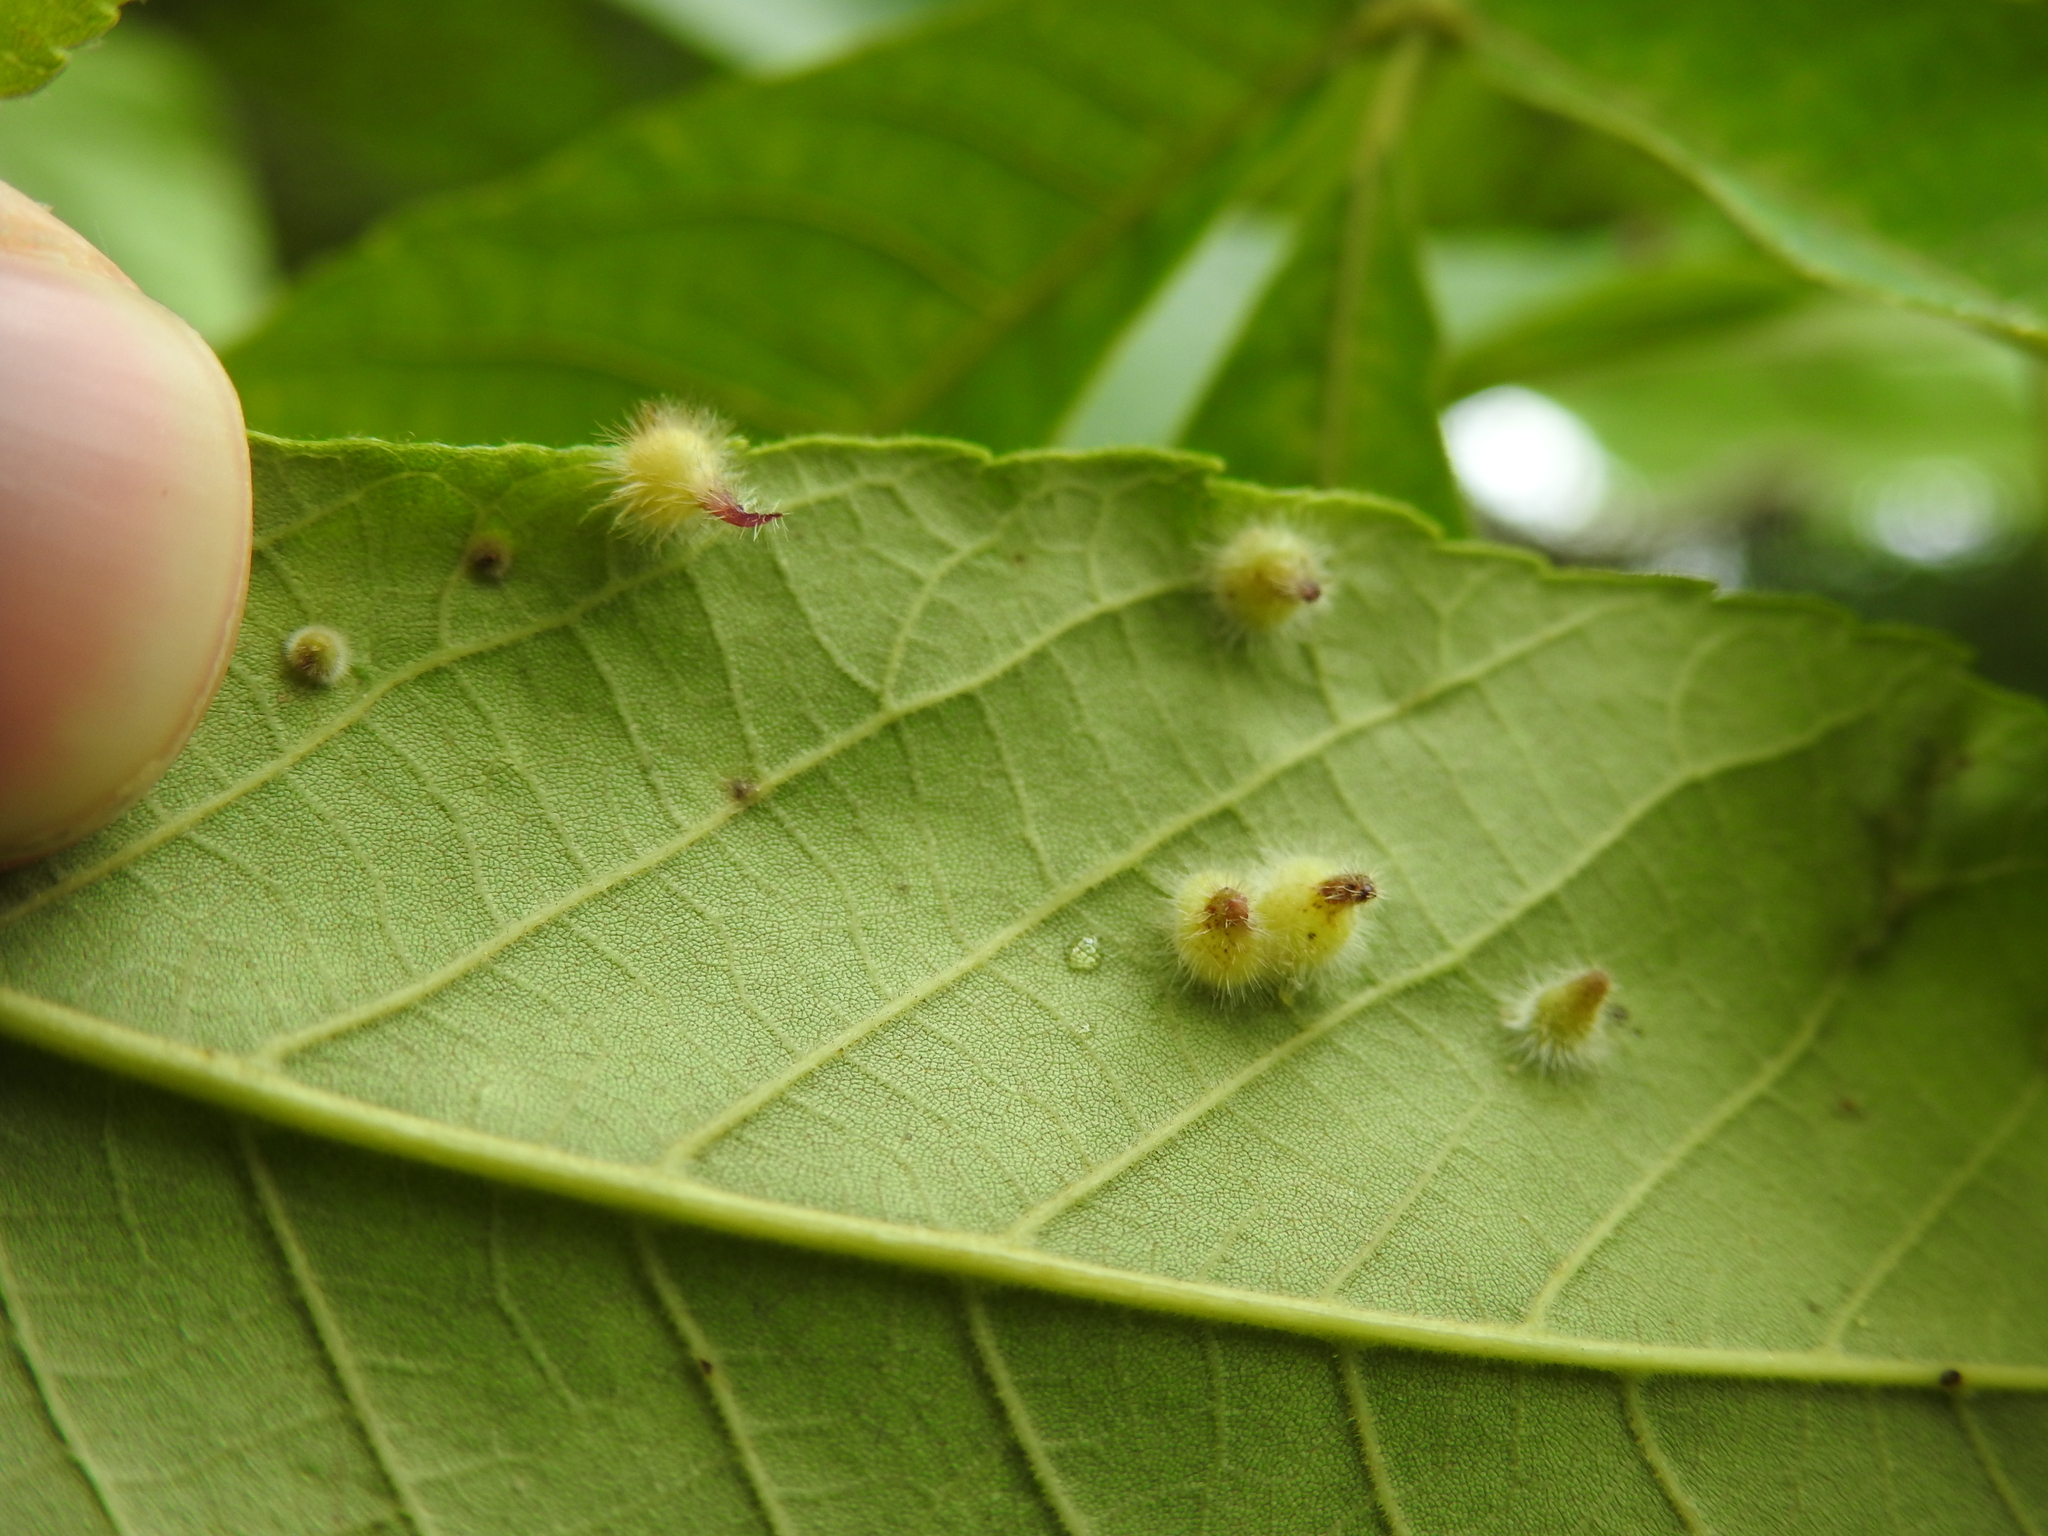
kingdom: Animalia
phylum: Arthropoda
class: Insecta
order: Diptera
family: Cecidomyiidae
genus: Caryomyia
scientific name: Caryomyia echinata
